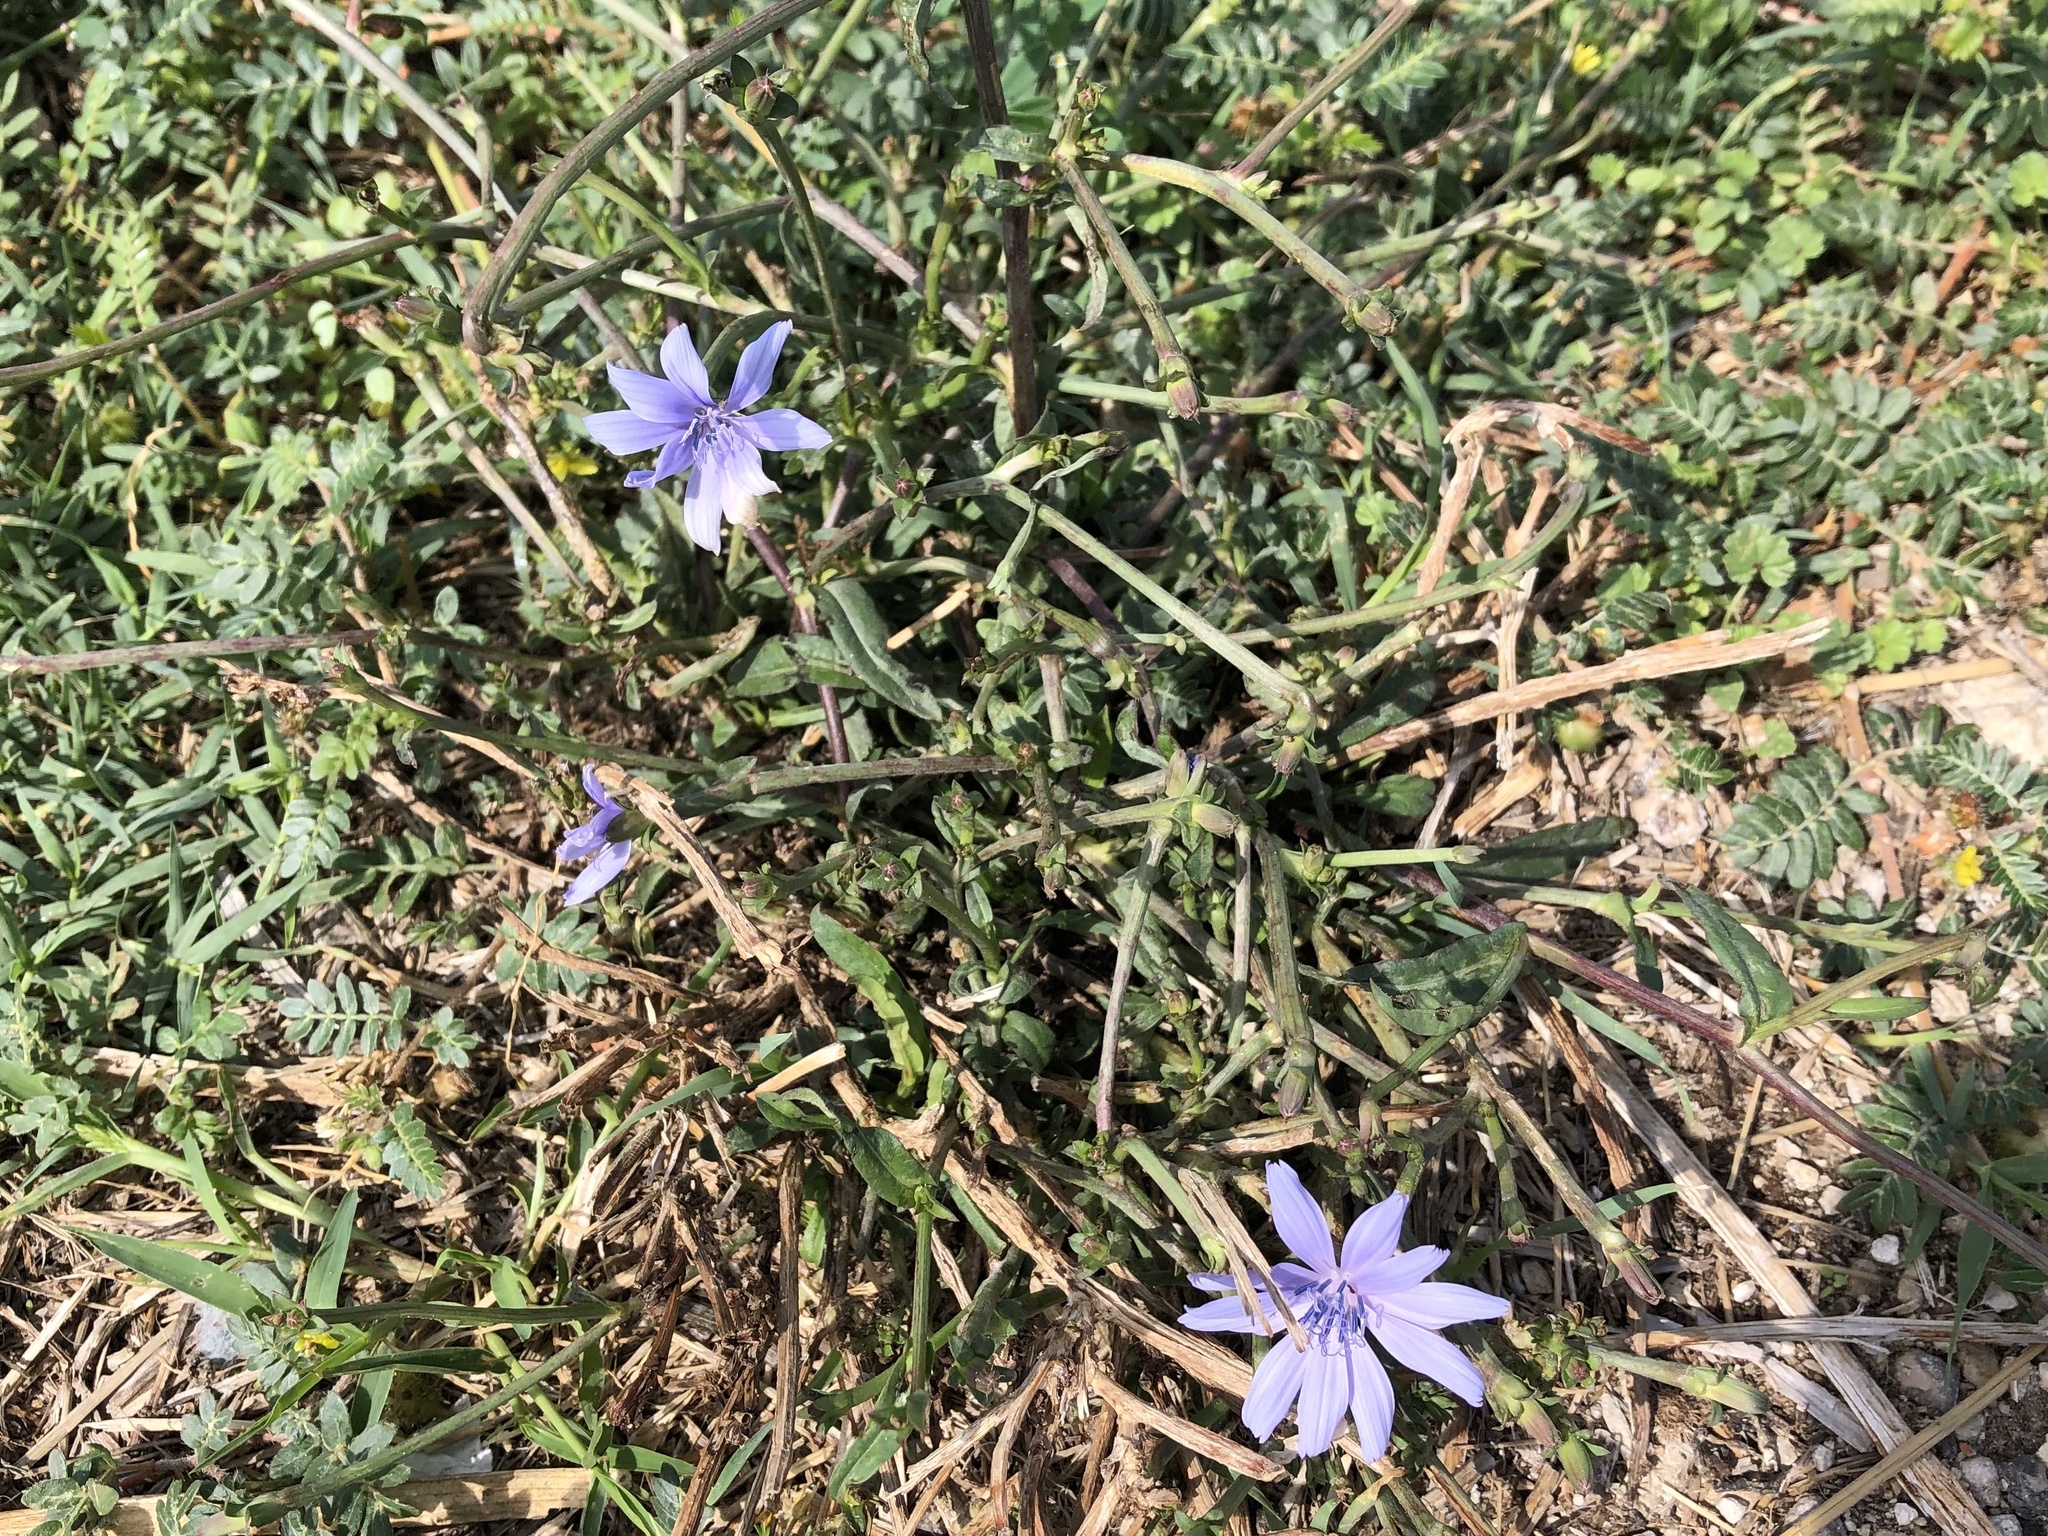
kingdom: Plantae
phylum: Tracheophyta
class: Magnoliopsida
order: Asterales
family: Asteraceae
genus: Cichorium
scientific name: Cichorium intybus
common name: Chicory
